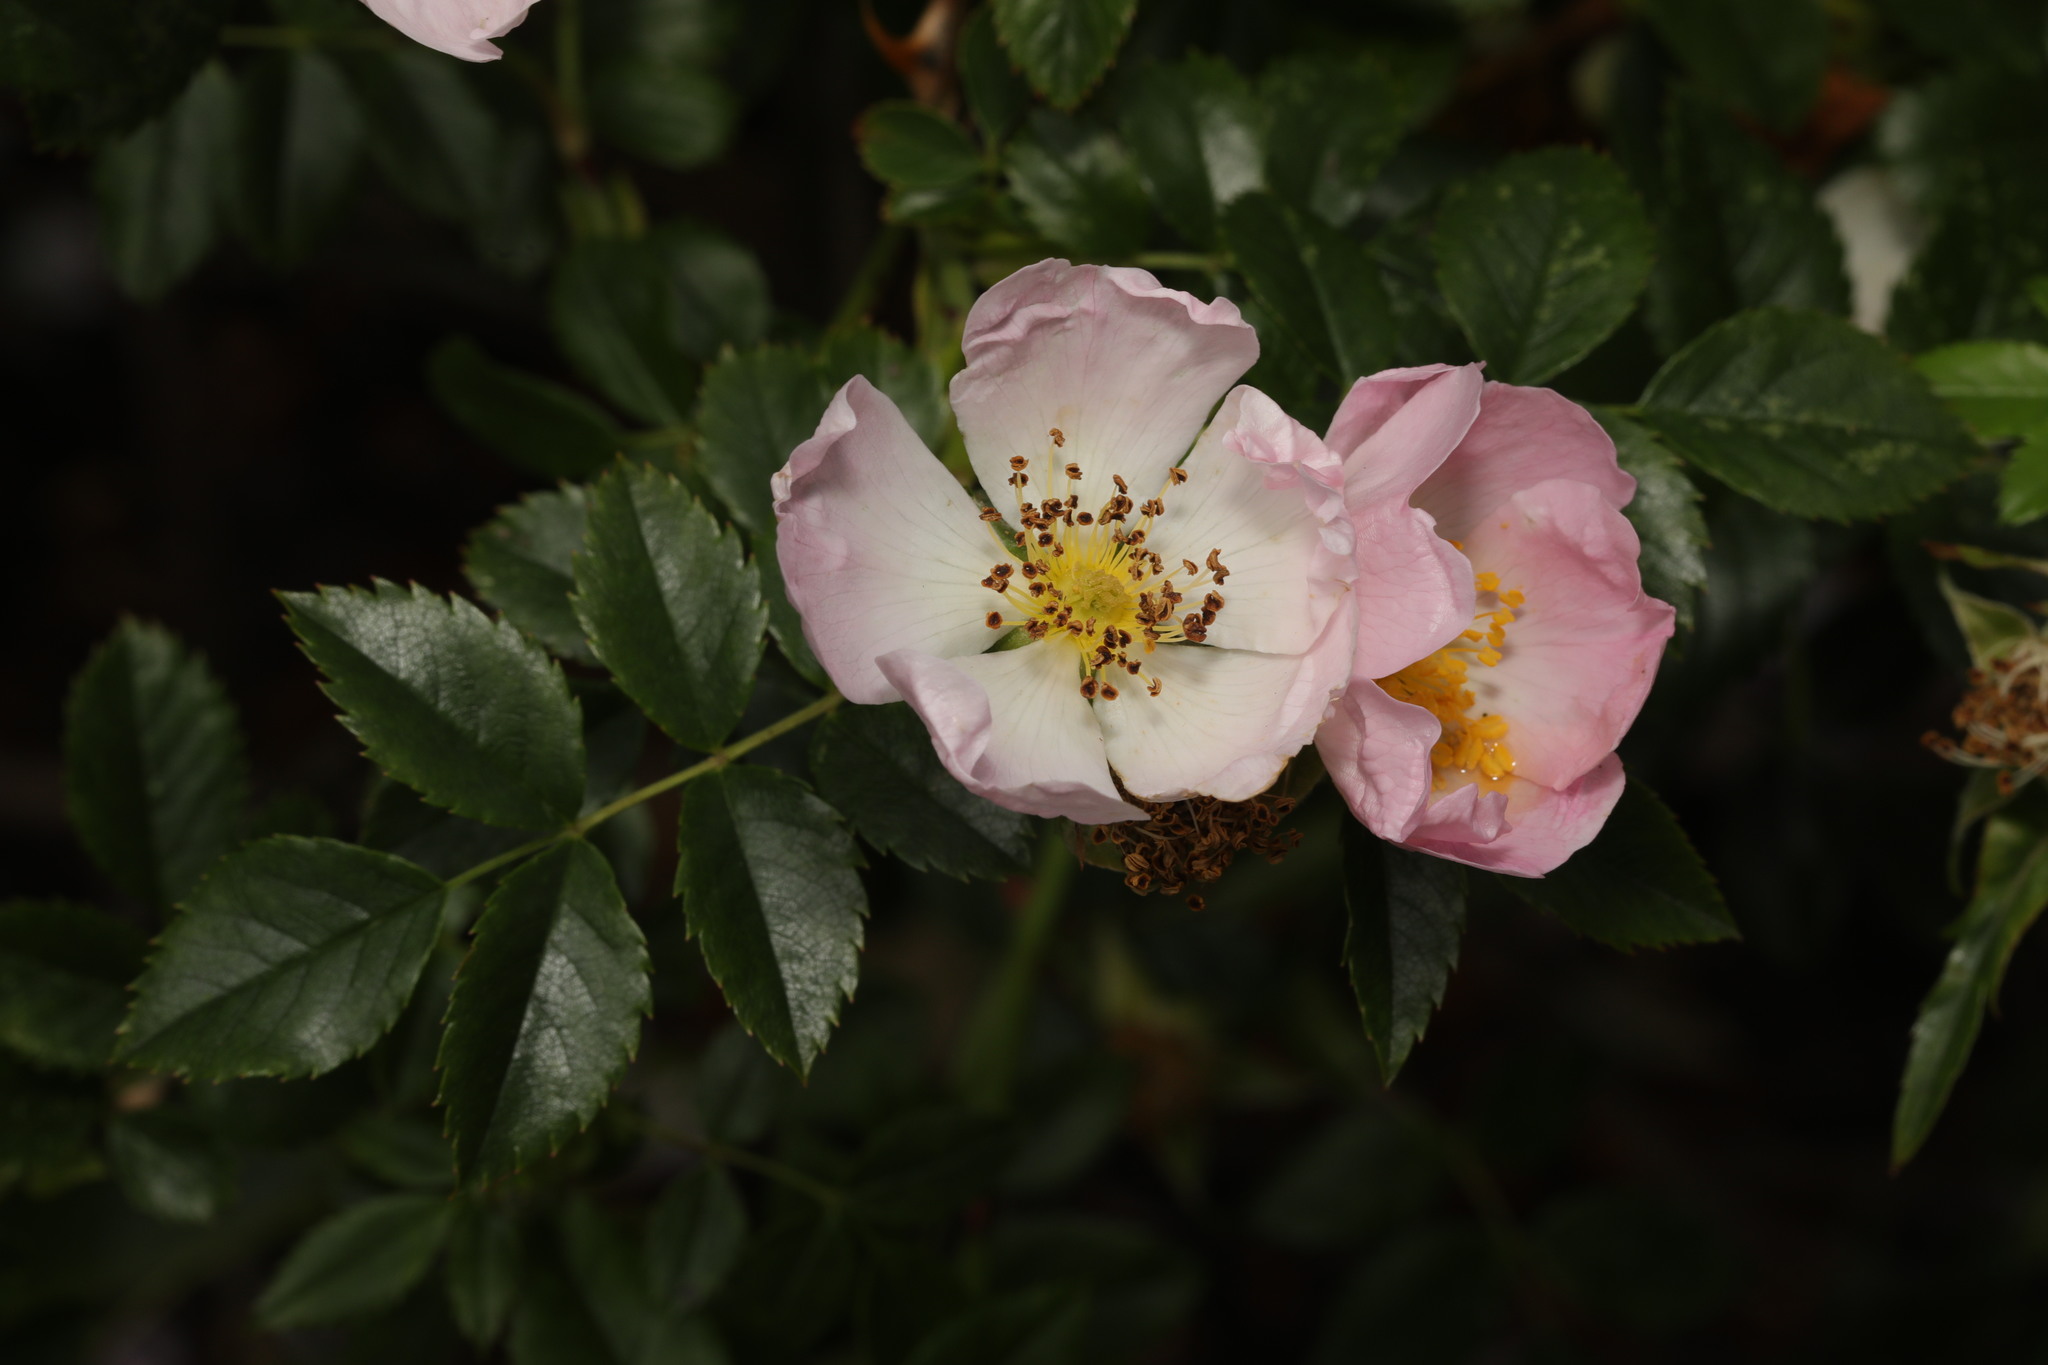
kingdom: Plantae
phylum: Tracheophyta
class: Magnoliopsida
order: Rosales
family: Rosaceae
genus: Rosa
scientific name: Rosa canina
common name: Dog rose
